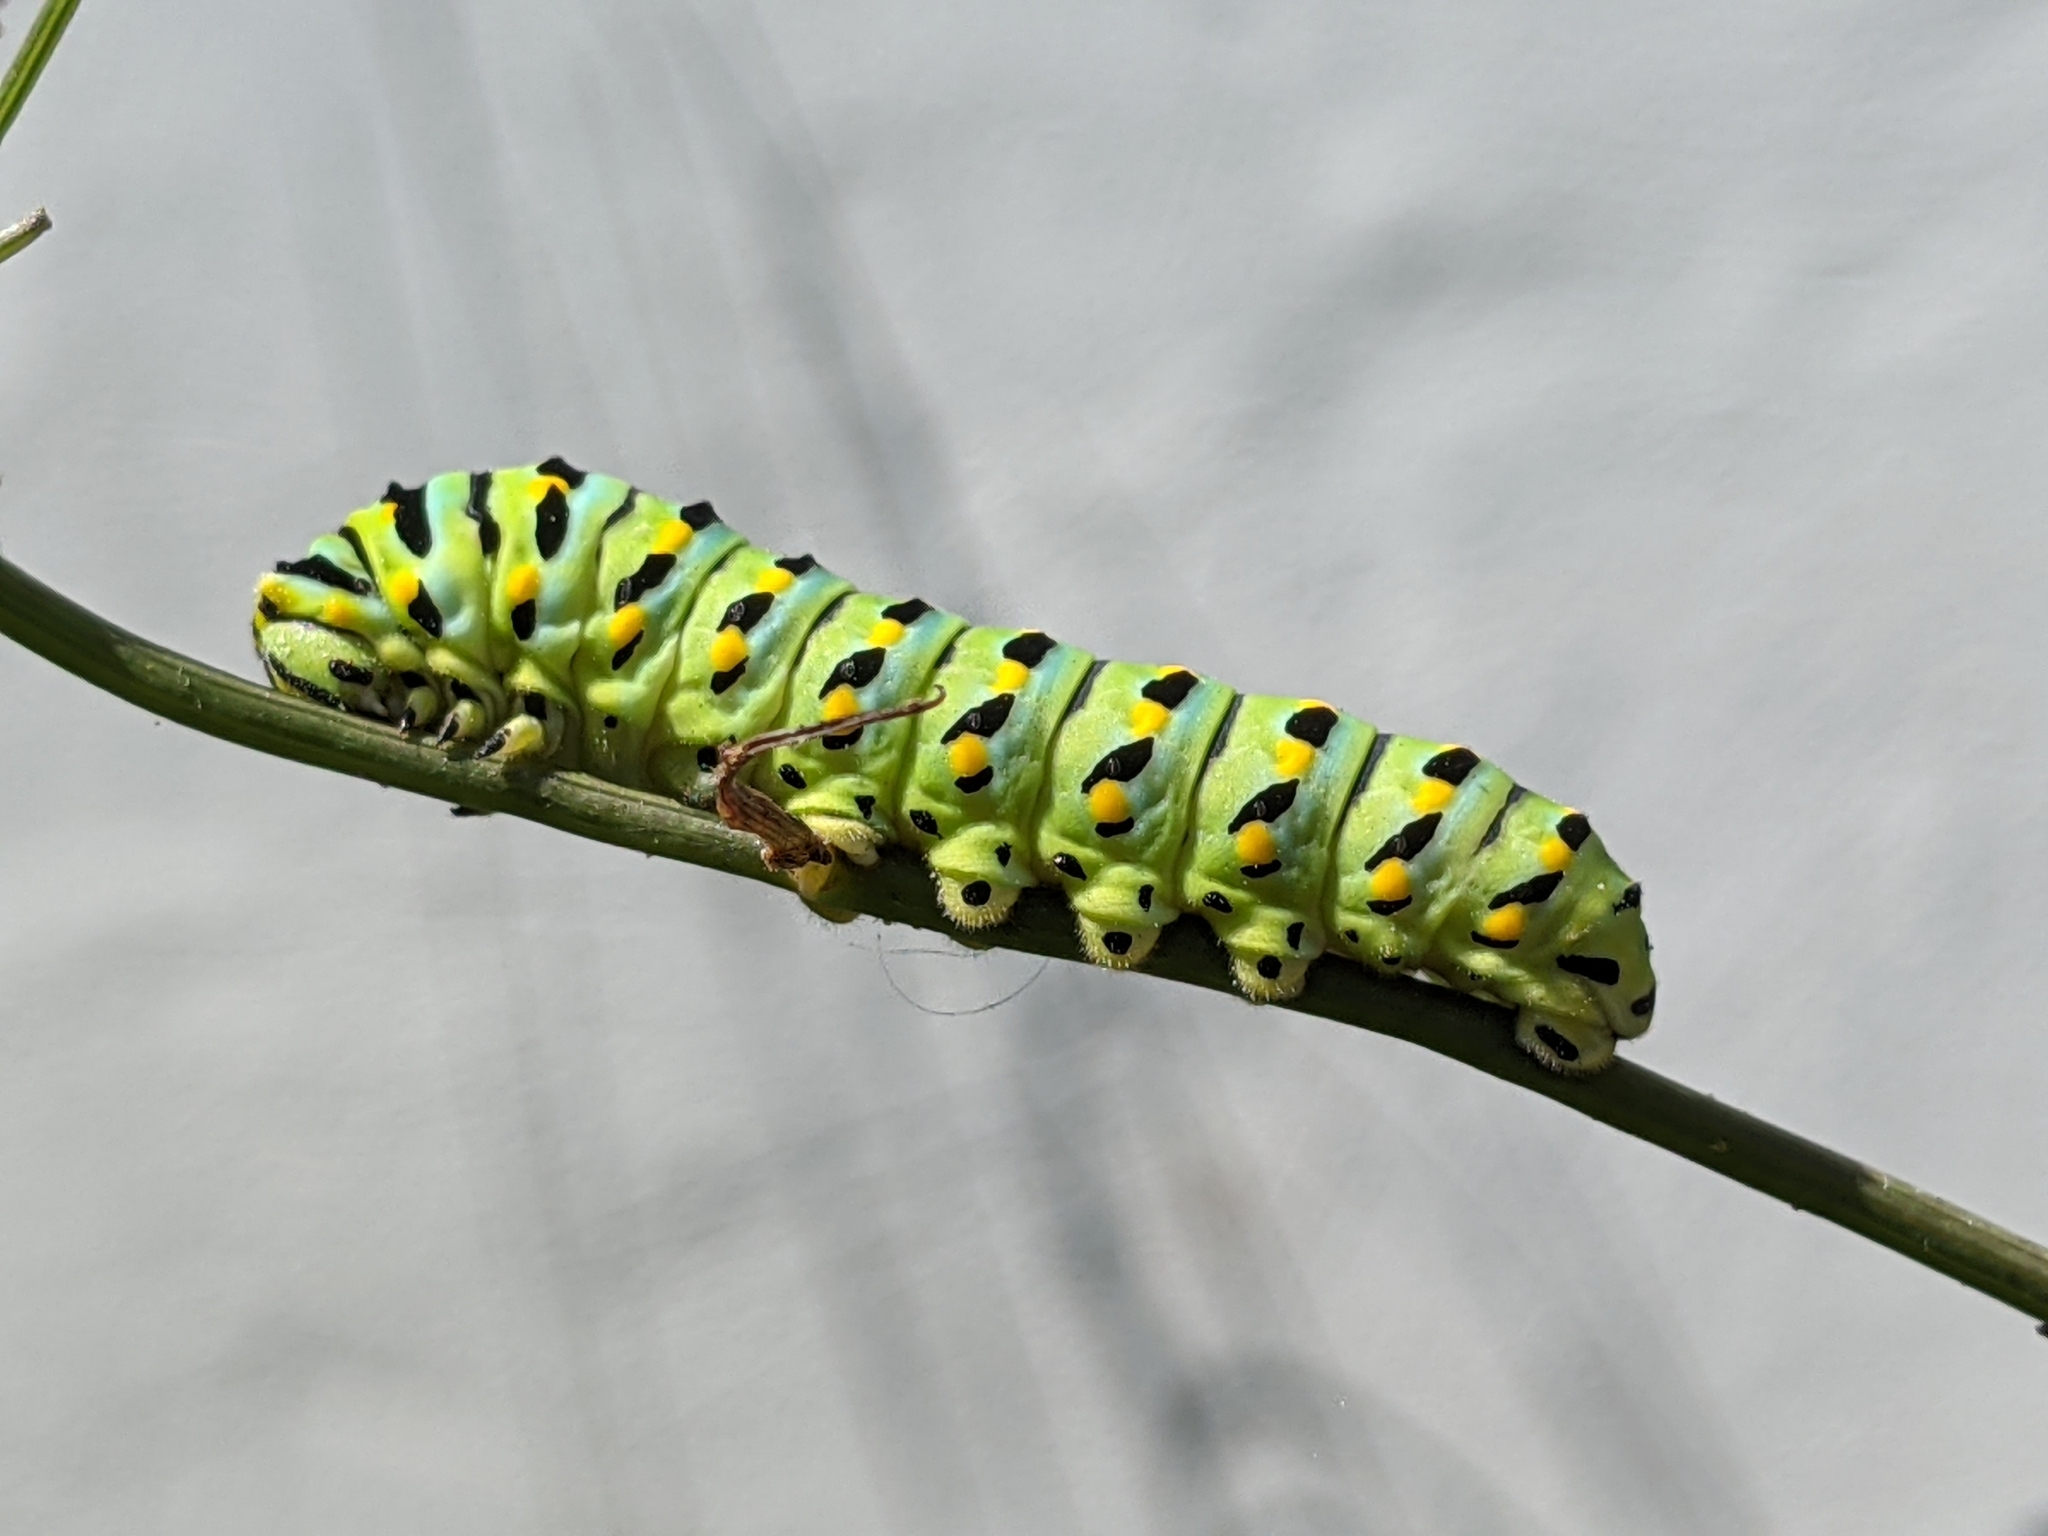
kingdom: Animalia
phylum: Arthropoda
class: Insecta
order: Lepidoptera
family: Papilionidae
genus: Papilio
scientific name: Papilio zelicaon
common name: Anise swallowtail
